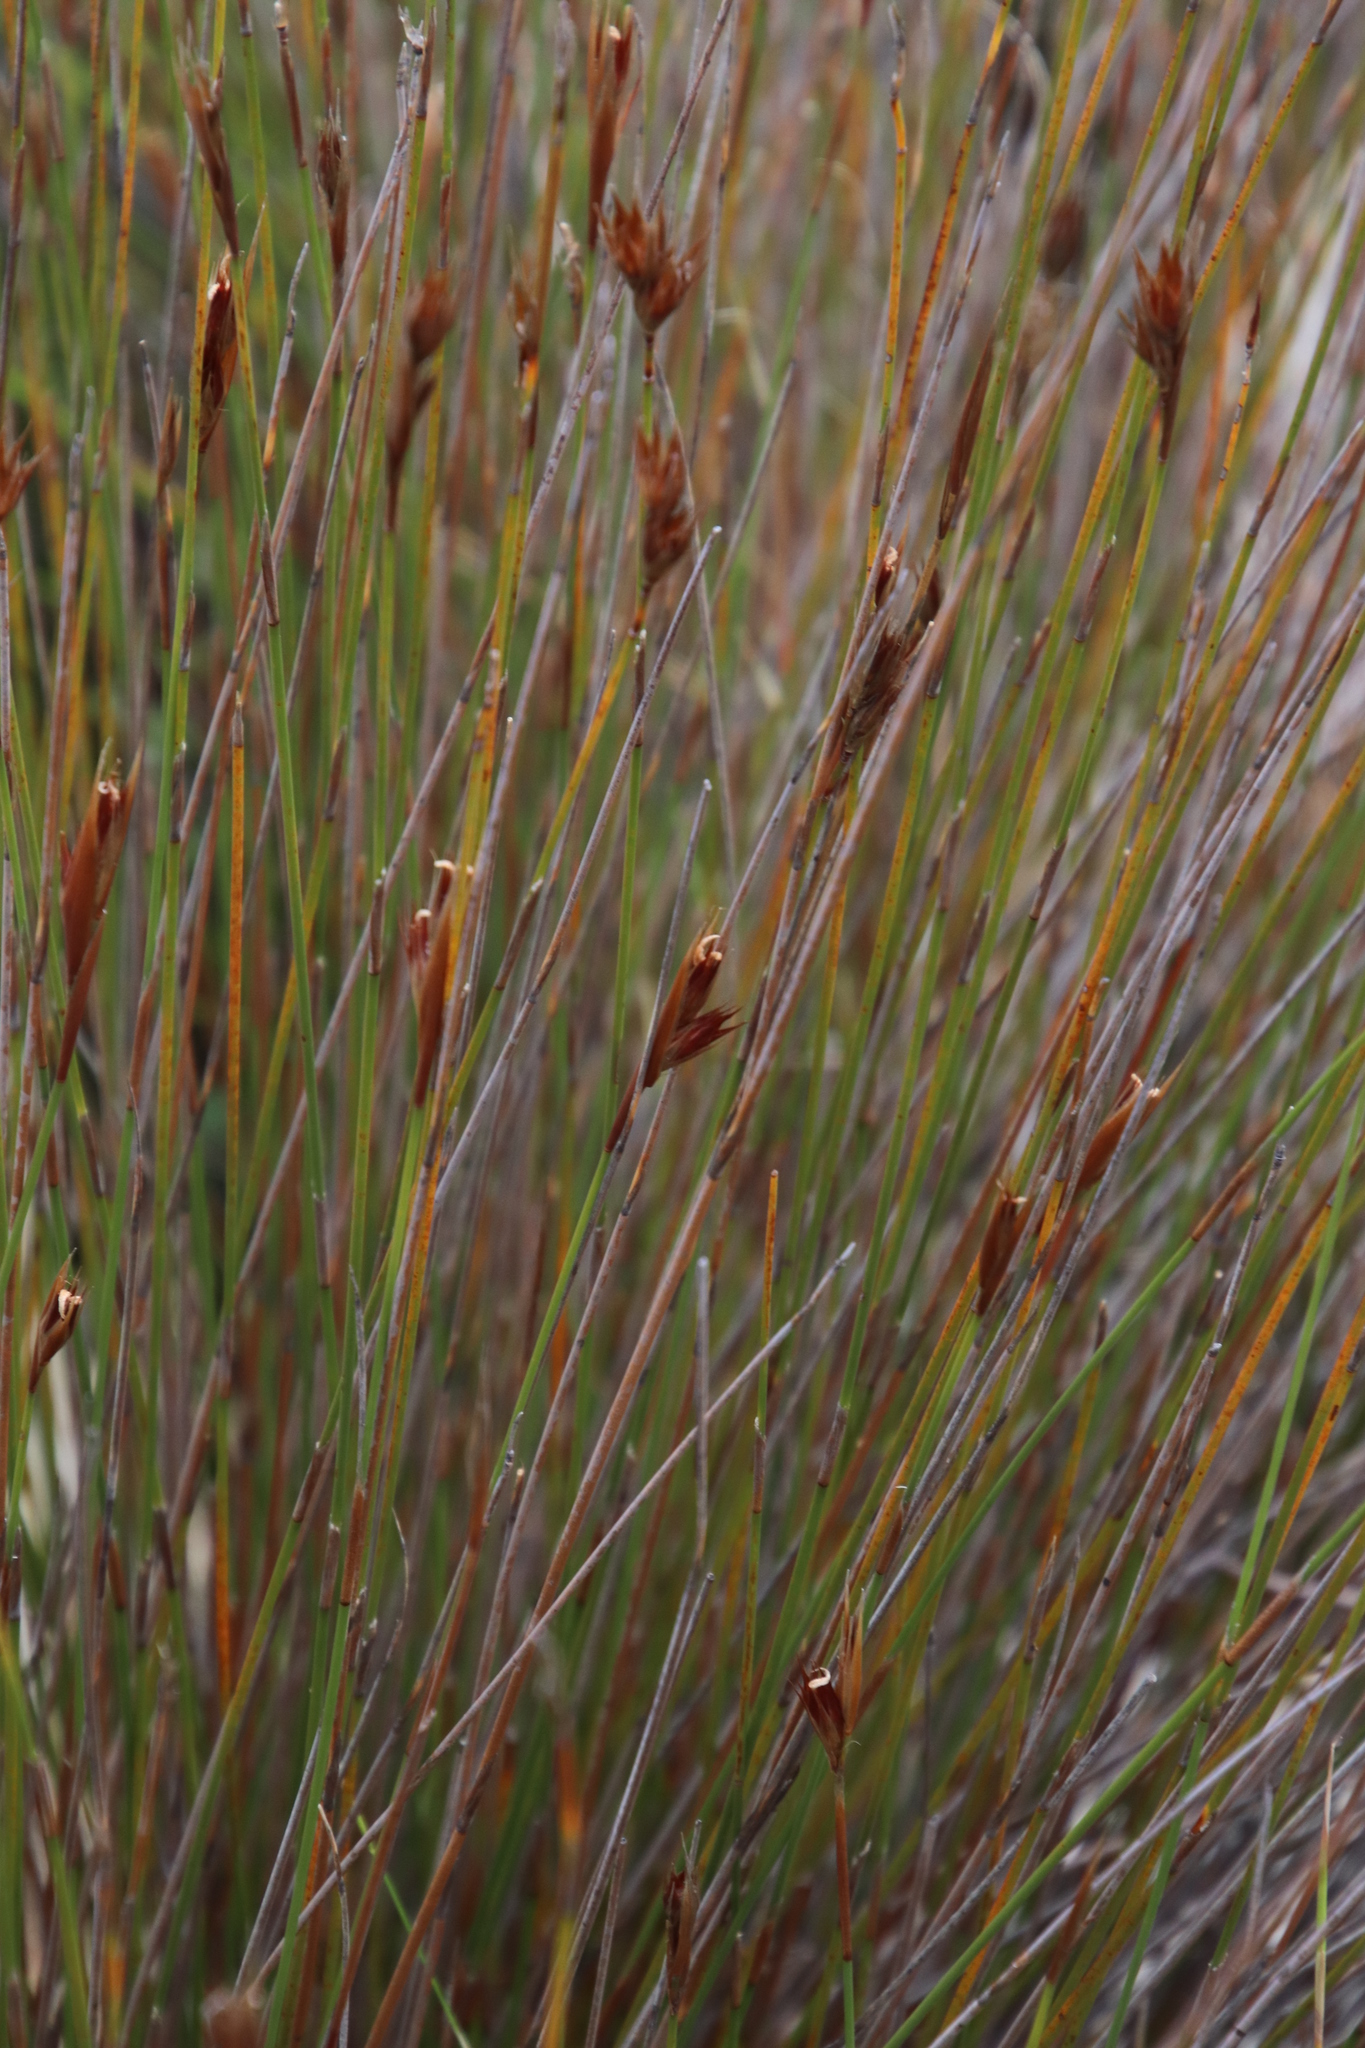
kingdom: Plantae
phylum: Tracheophyta
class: Liliopsida
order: Poales
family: Restionaceae
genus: Hypodiscus
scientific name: Hypodiscus argenteus
